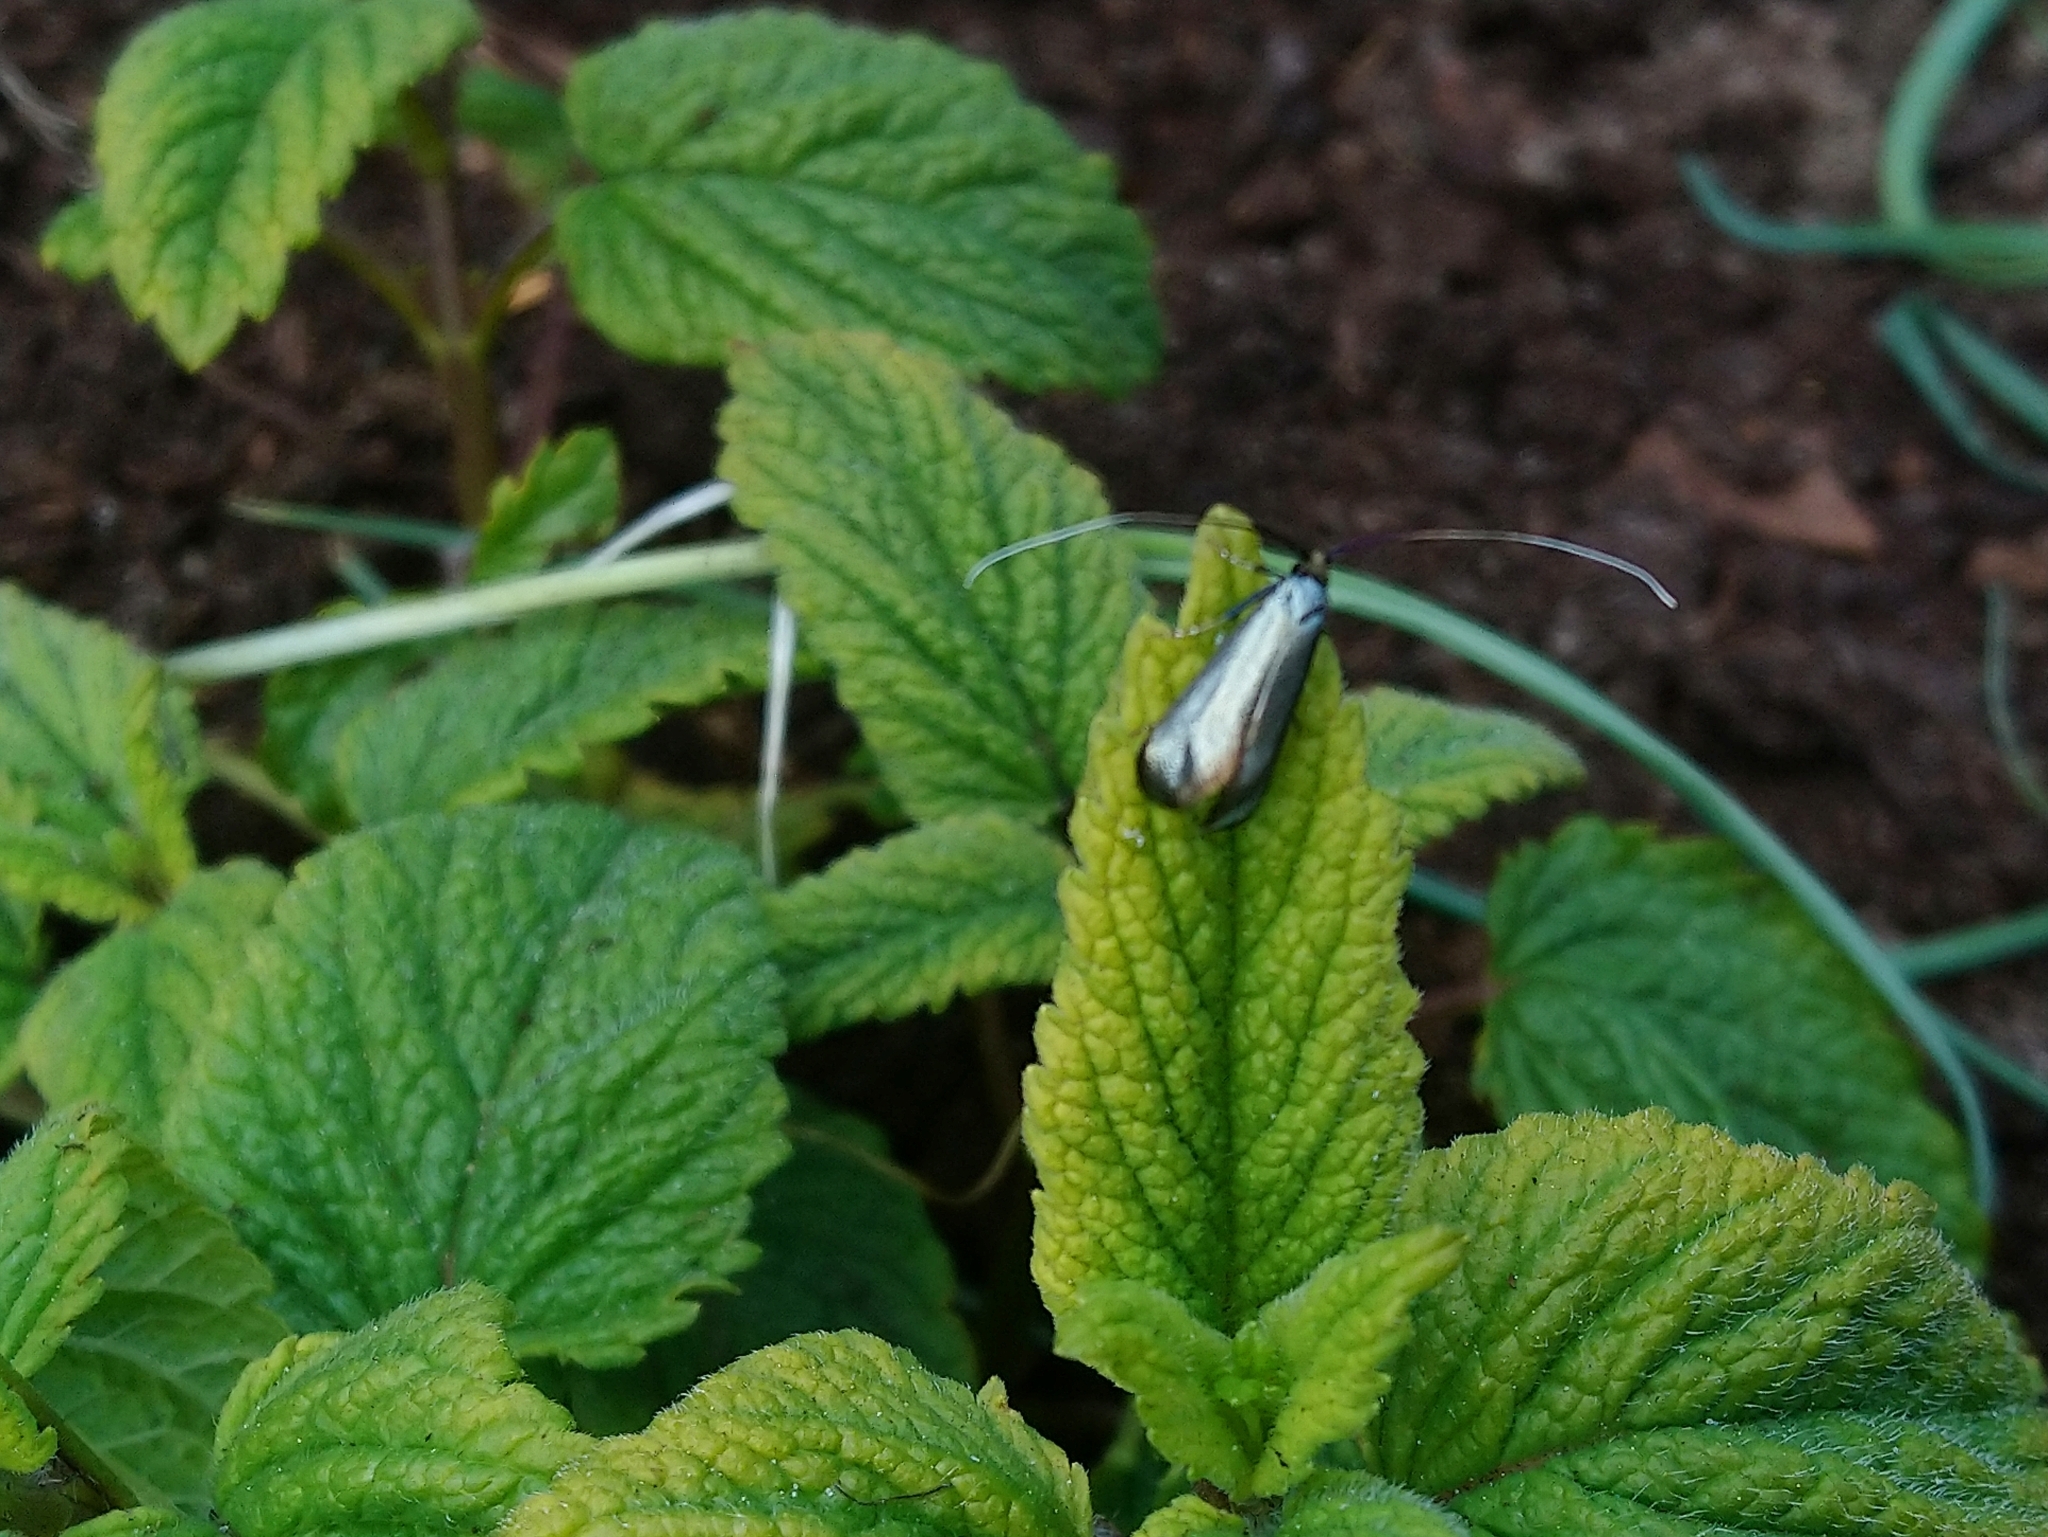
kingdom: Animalia
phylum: Arthropoda
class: Insecta
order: Lepidoptera
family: Adelidae
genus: Adela
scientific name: Adela viridella
